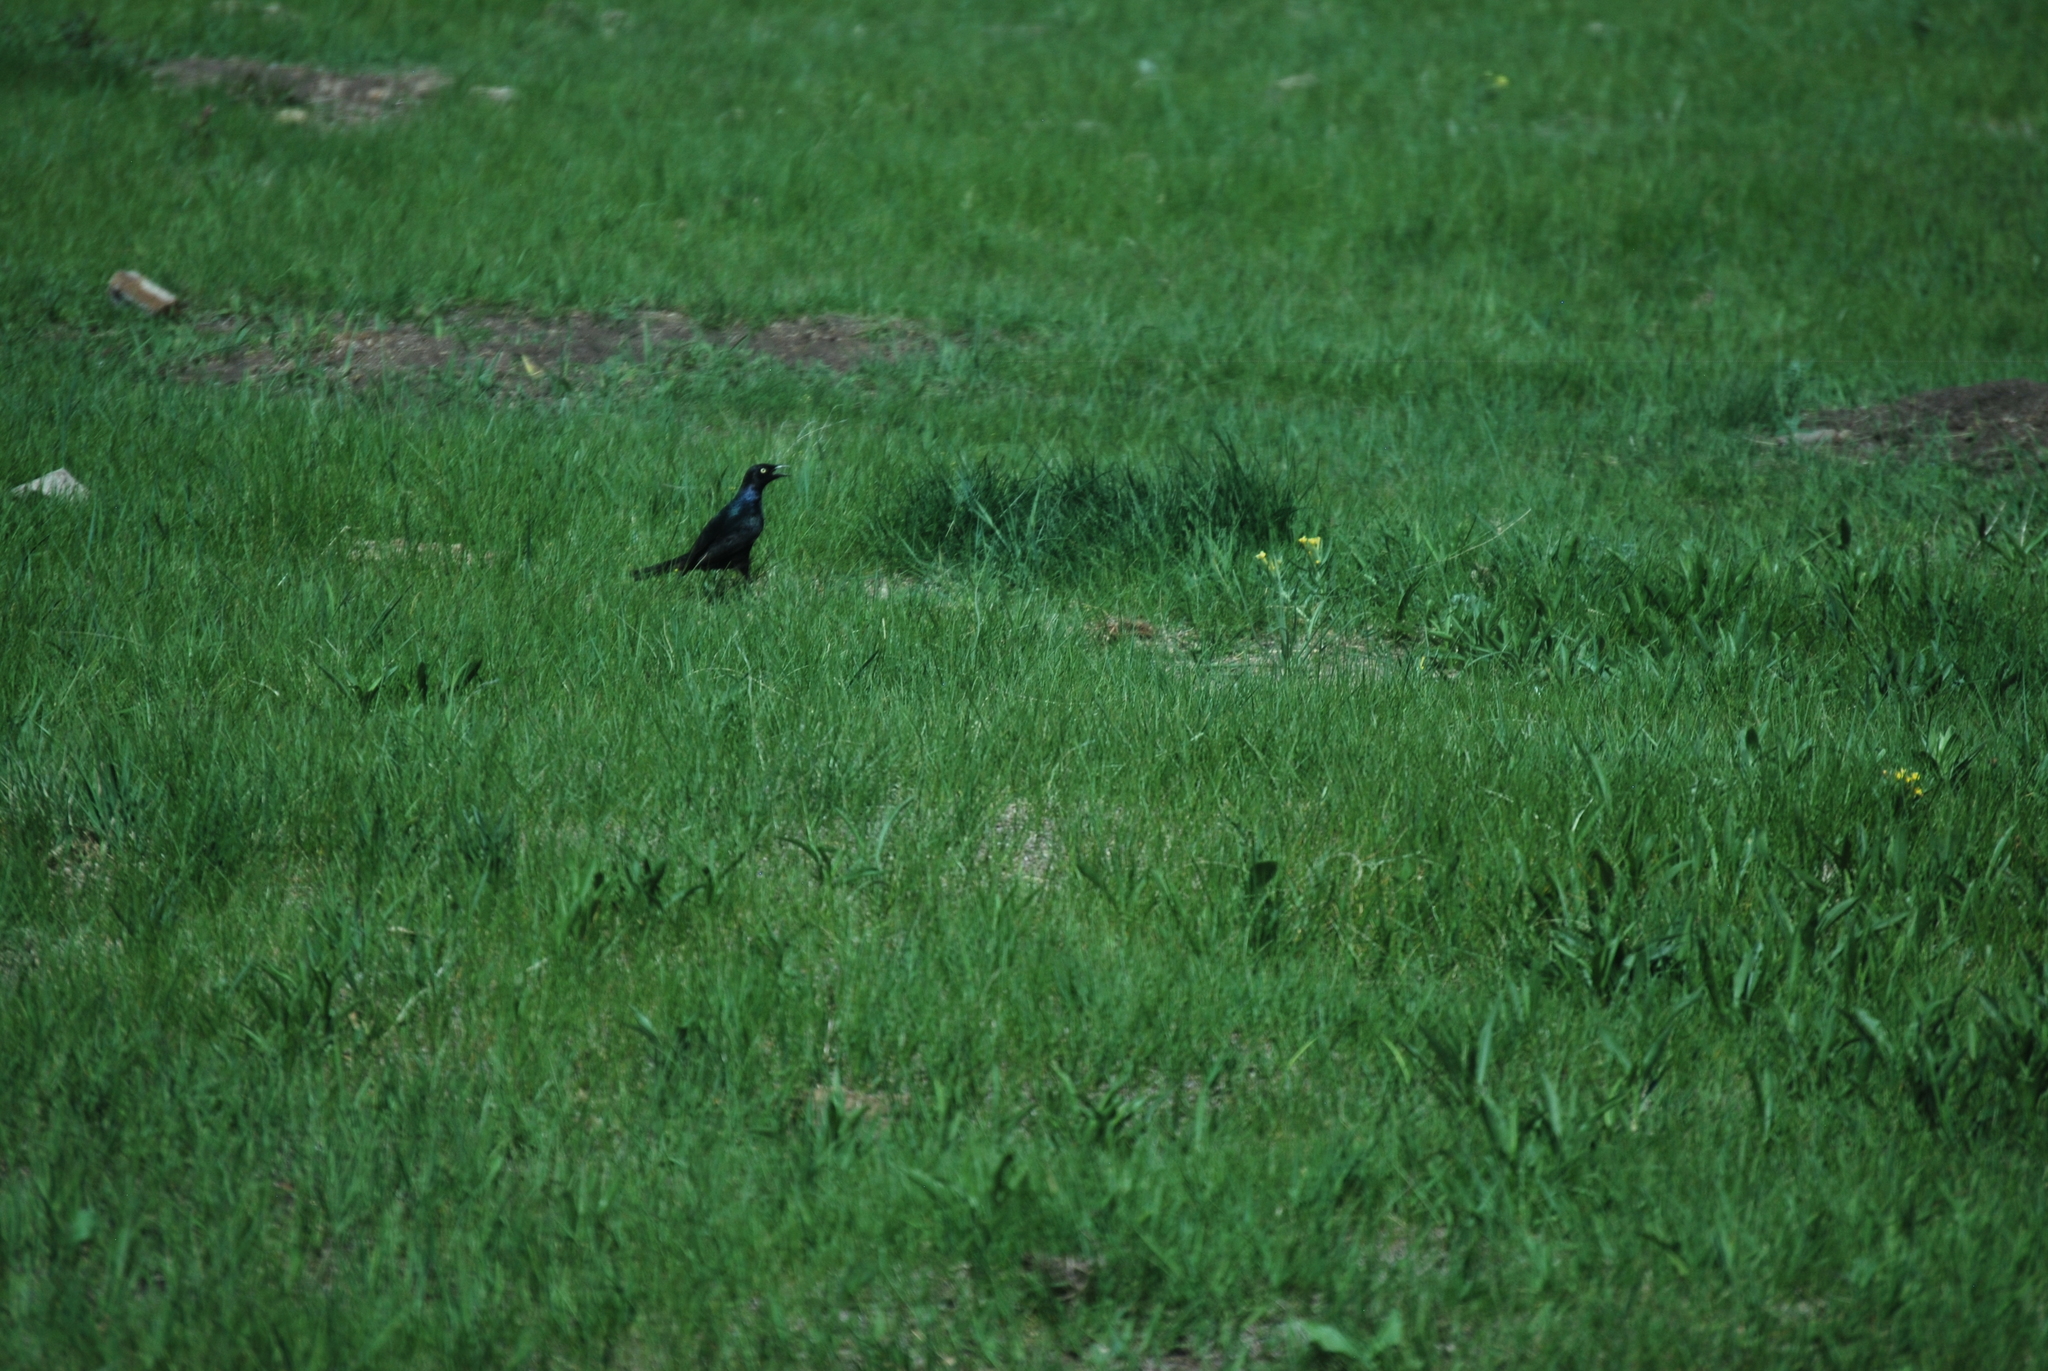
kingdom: Animalia
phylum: Chordata
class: Aves
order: Passeriformes
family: Icteridae
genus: Quiscalus
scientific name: Quiscalus quiscula
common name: Common grackle
